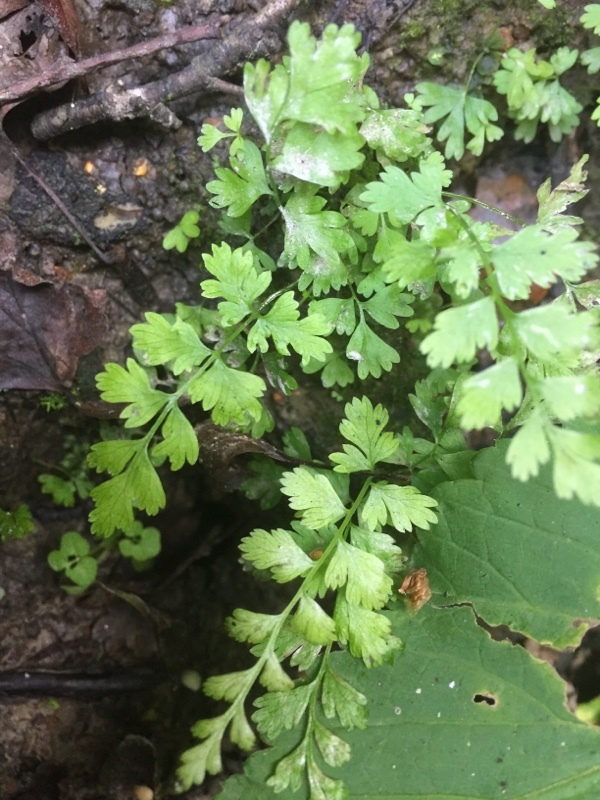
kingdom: Plantae
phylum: Tracheophyta
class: Polypodiopsida
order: Polypodiales
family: Athyriaceae
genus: Athyrium
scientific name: Athyrium filix-femina
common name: Lady fern
